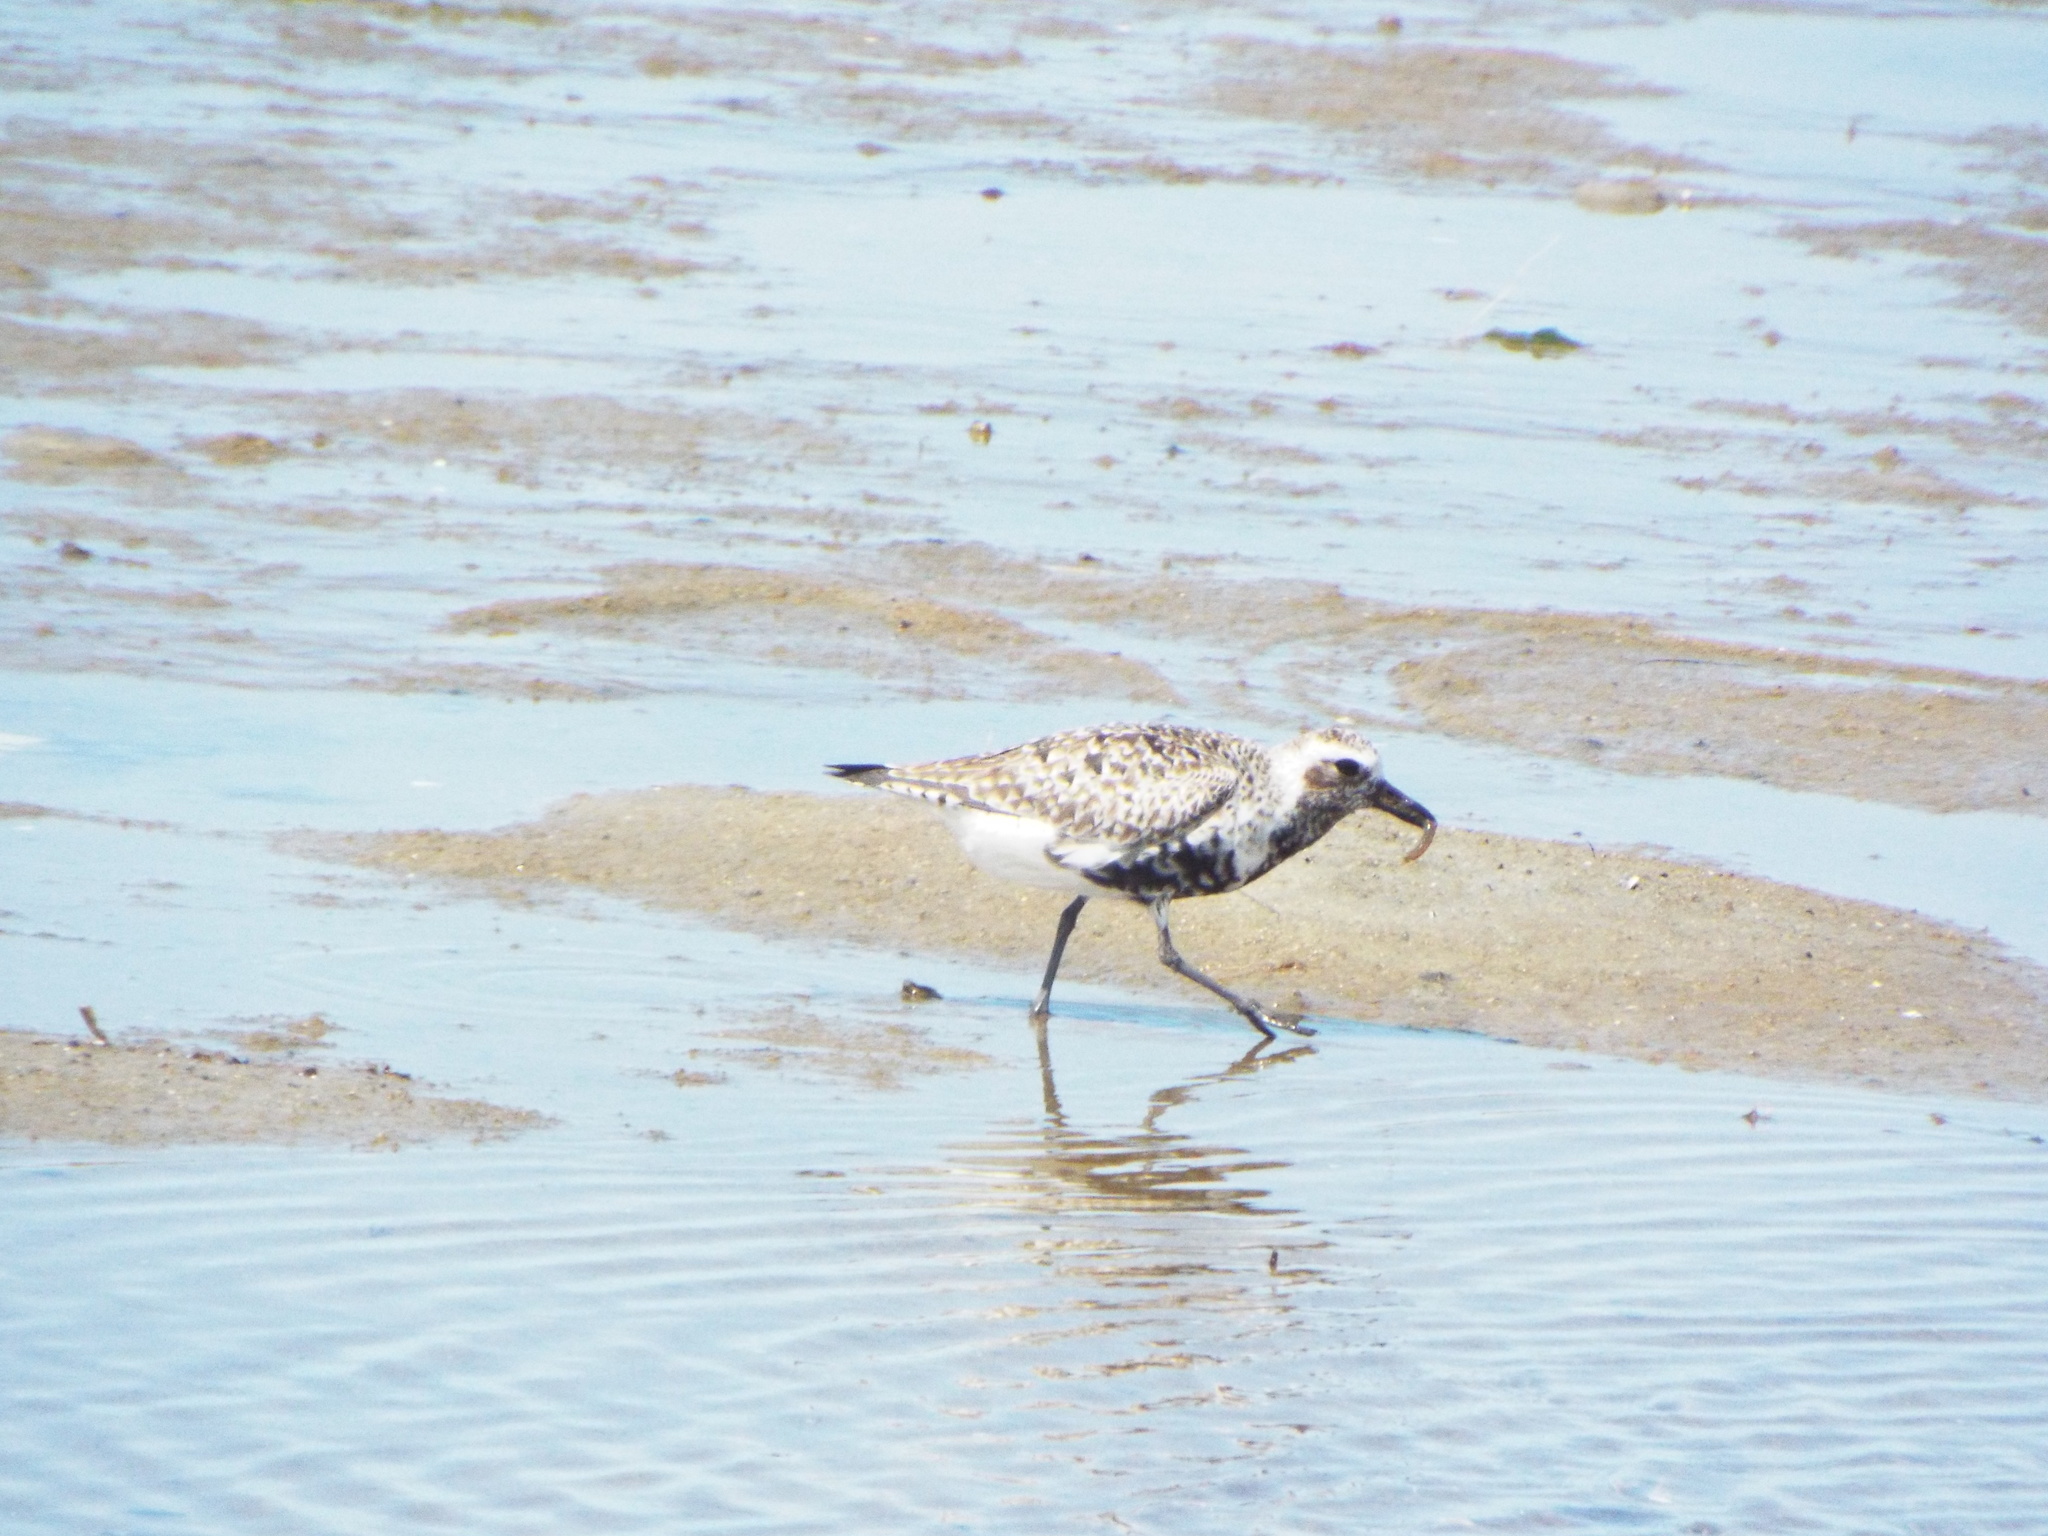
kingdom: Animalia
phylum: Chordata
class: Aves
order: Charadriiformes
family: Charadriidae
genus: Pluvialis
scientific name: Pluvialis squatarola
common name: Grey plover
